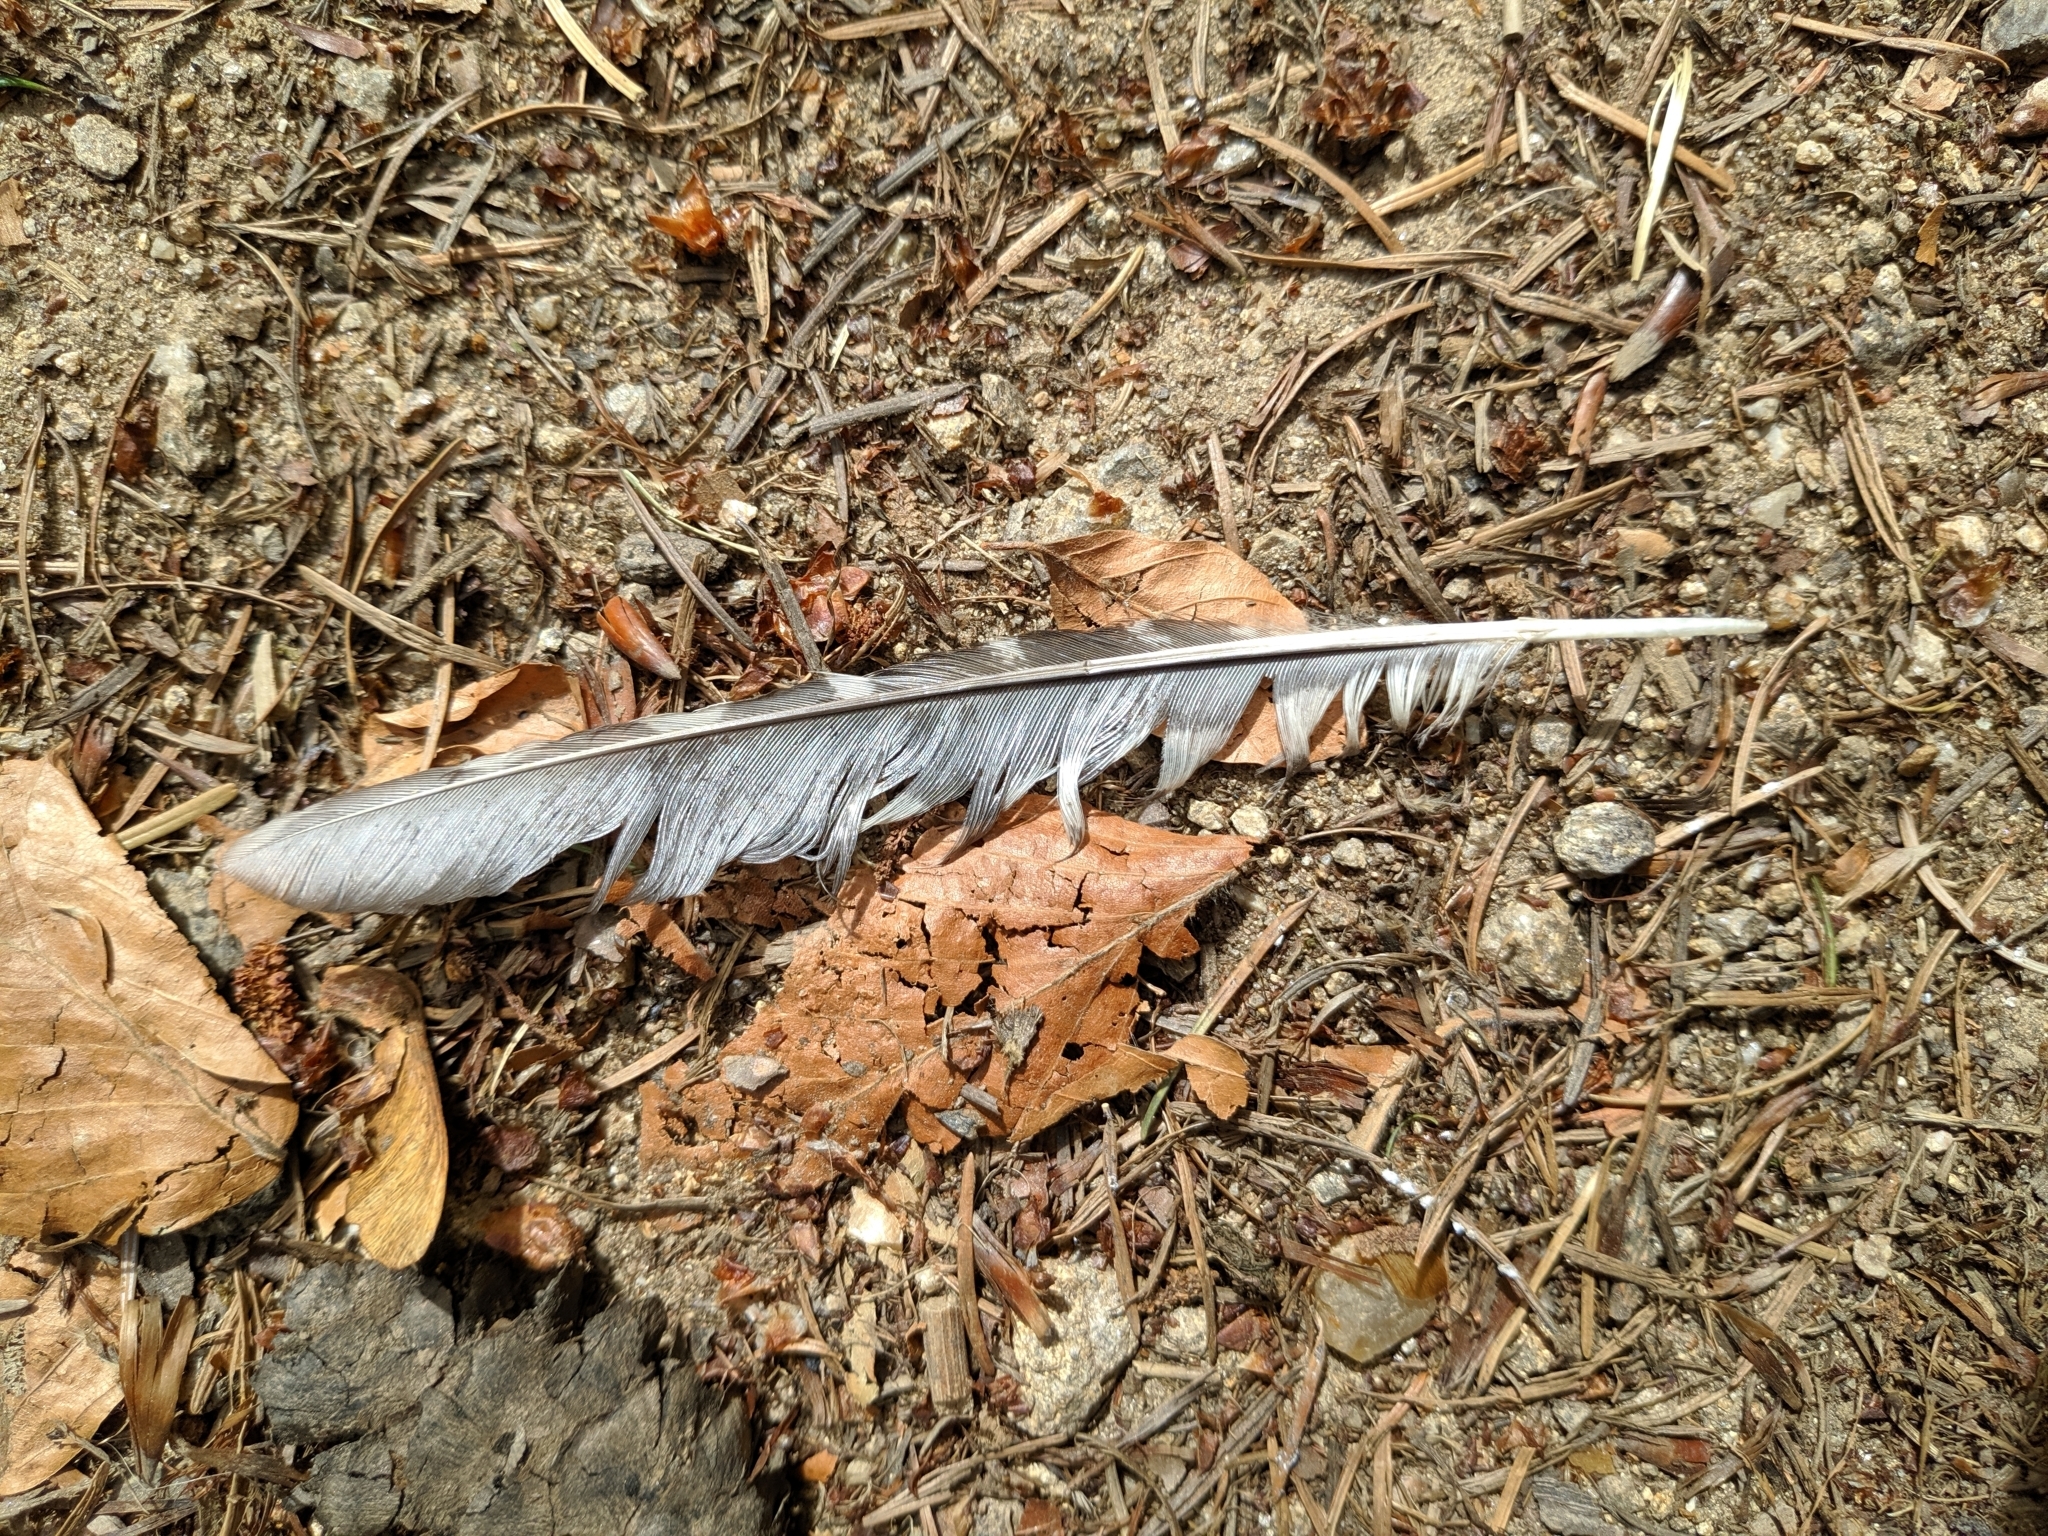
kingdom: Animalia
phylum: Chordata
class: Aves
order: Piciformes
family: Picidae
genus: Dendrocopos
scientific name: Dendrocopos major
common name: Great spotted woodpecker
